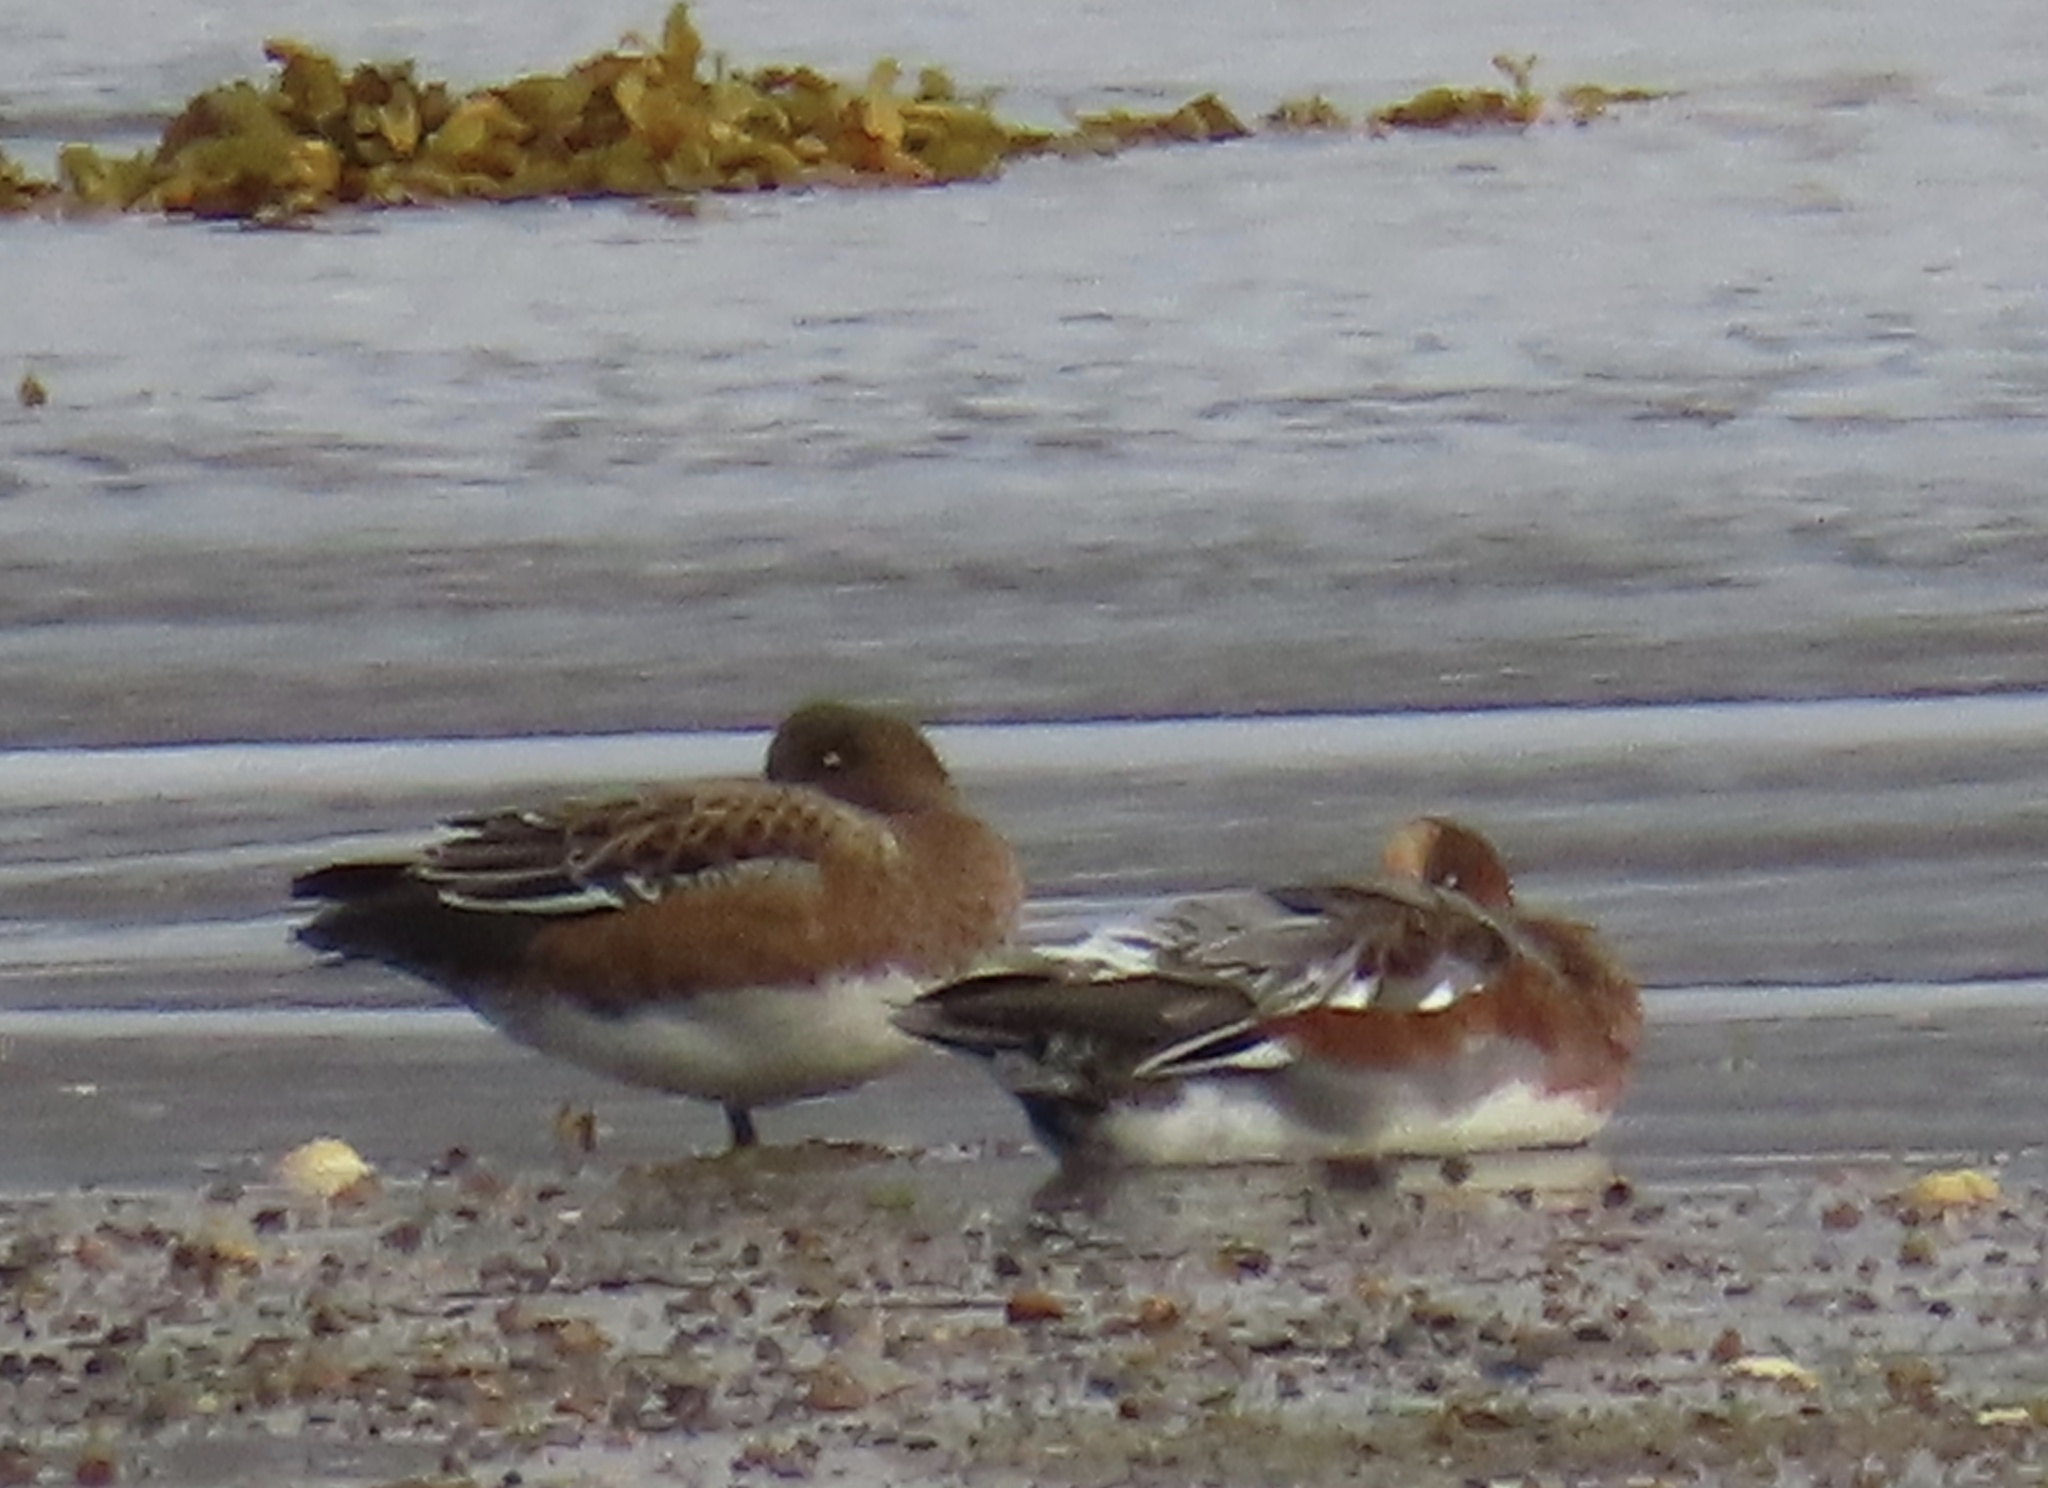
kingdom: Animalia
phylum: Chordata
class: Aves
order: Anseriformes
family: Anatidae
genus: Mareca
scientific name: Mareca penelope
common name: Eurasian wigeon
